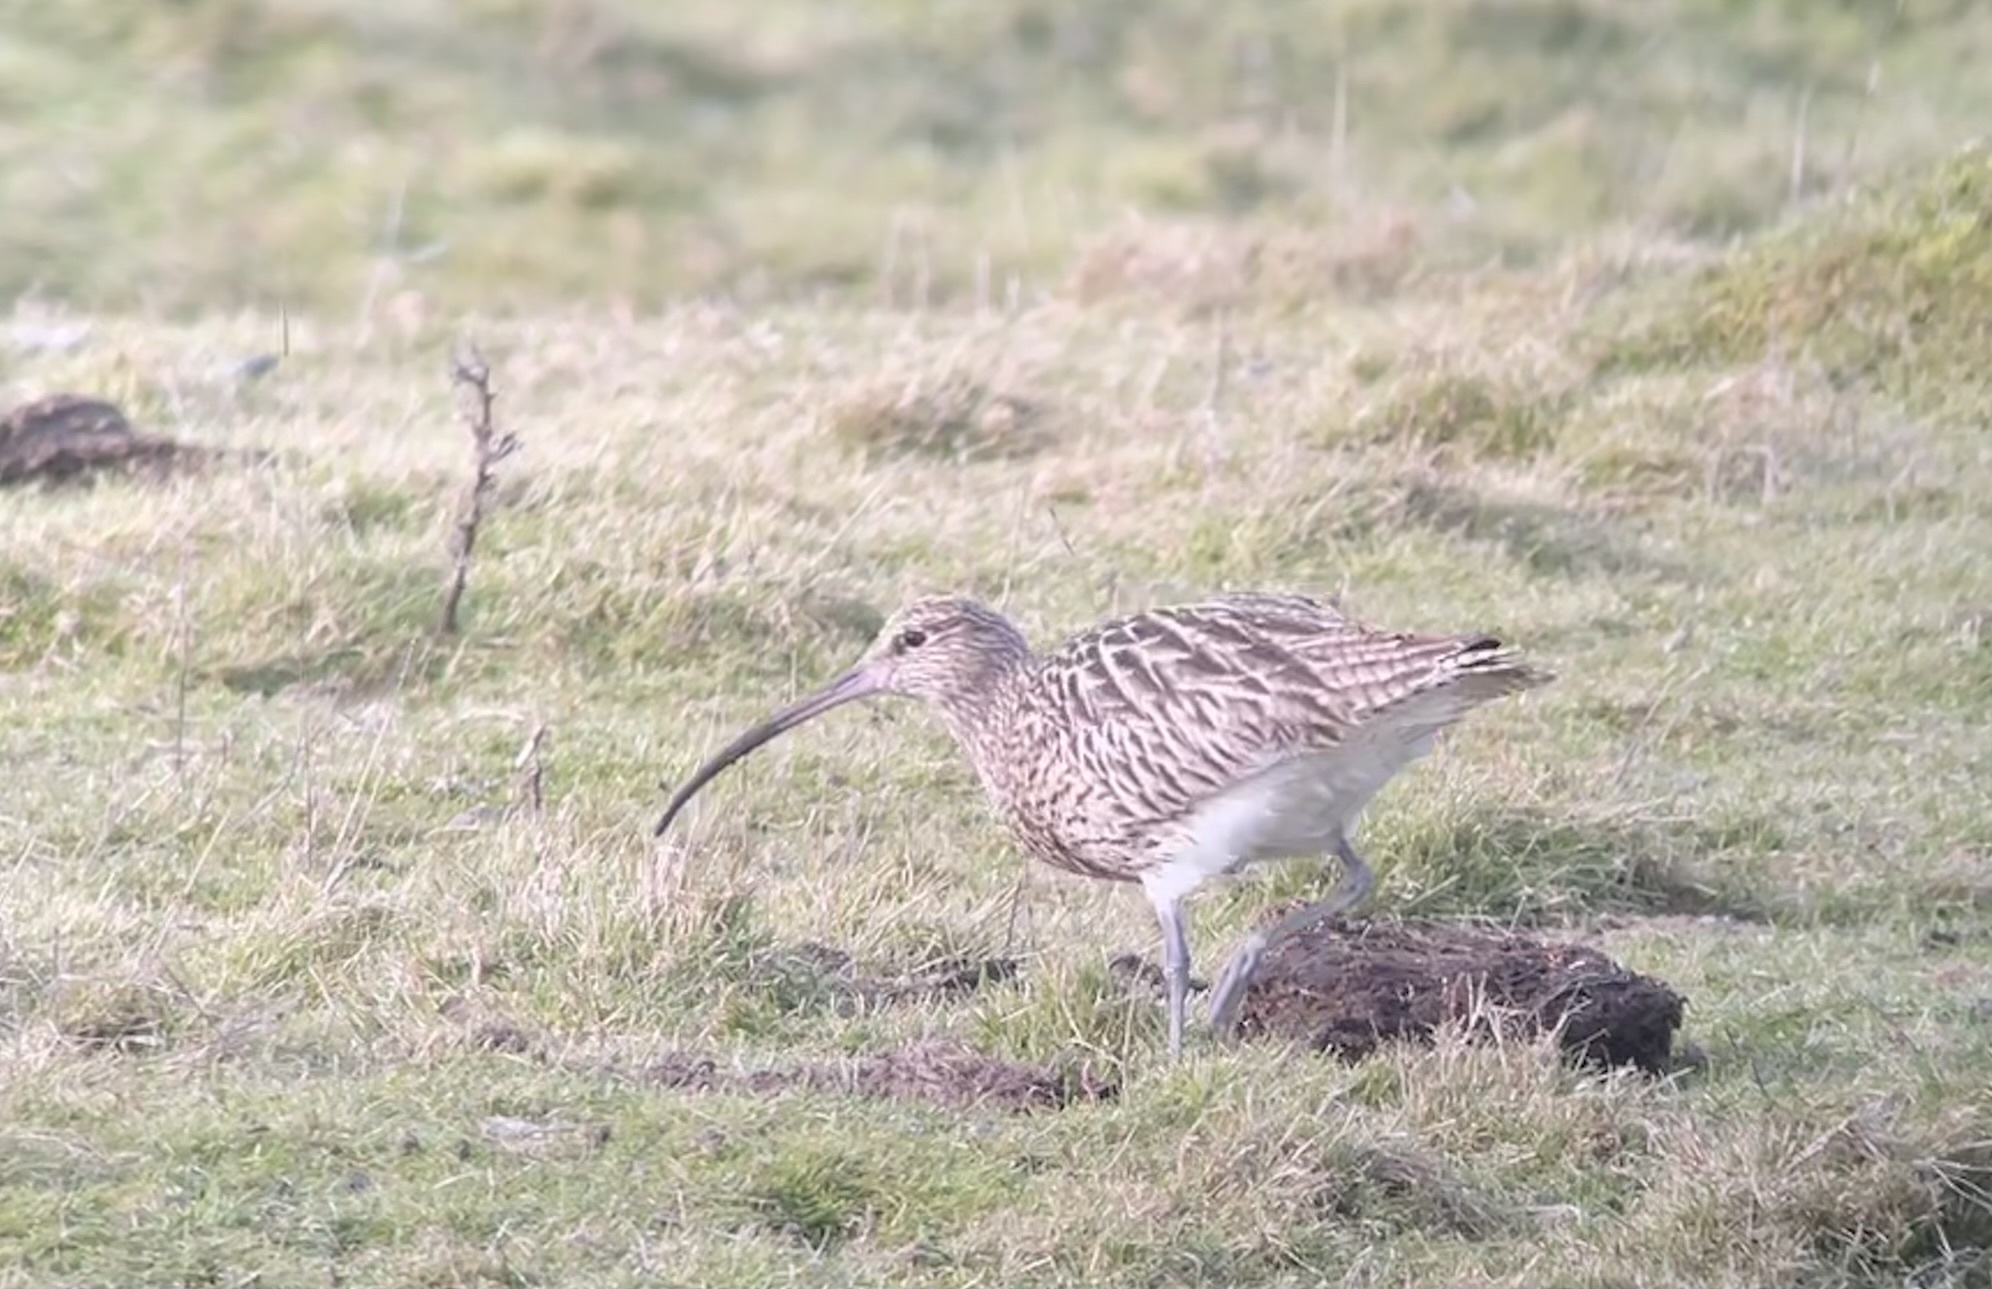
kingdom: Animalia
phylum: Chordata
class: Aves
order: Charadriiformes
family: Scolopacidae
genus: Numenius
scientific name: Numenius arquata
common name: Eurasian curlew
